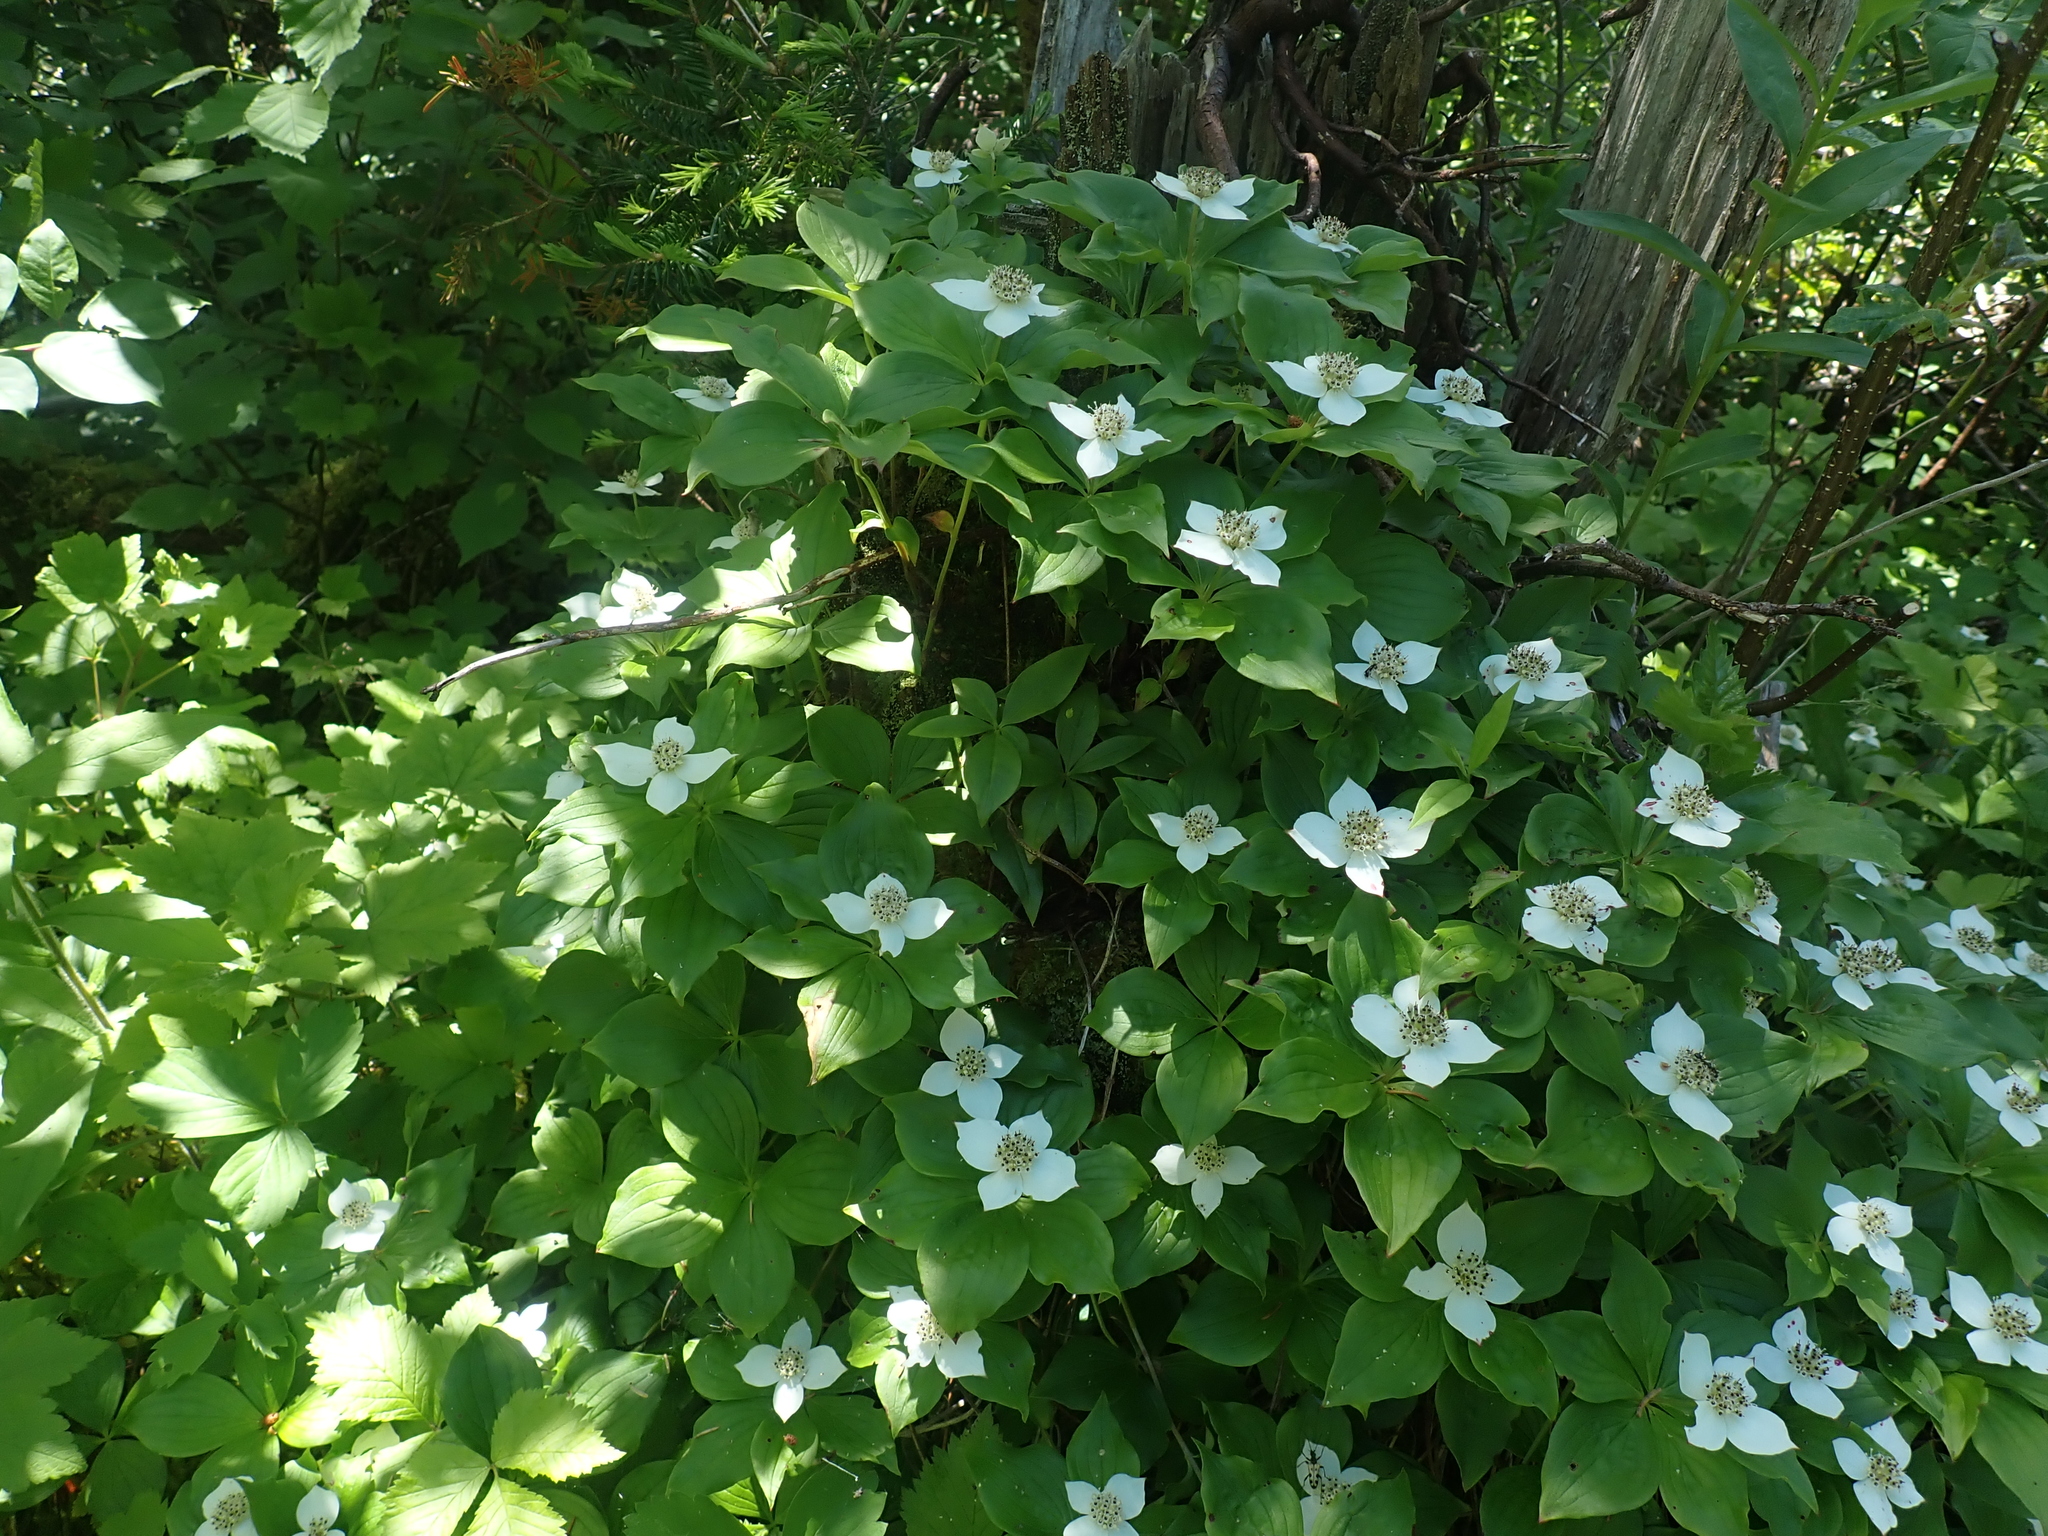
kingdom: Plantae
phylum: Tracheophyta
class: Magnoliopsida
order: Cornales
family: Cornaceae
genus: Cornus
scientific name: Cornus canadensis
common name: Creeping dogwood
